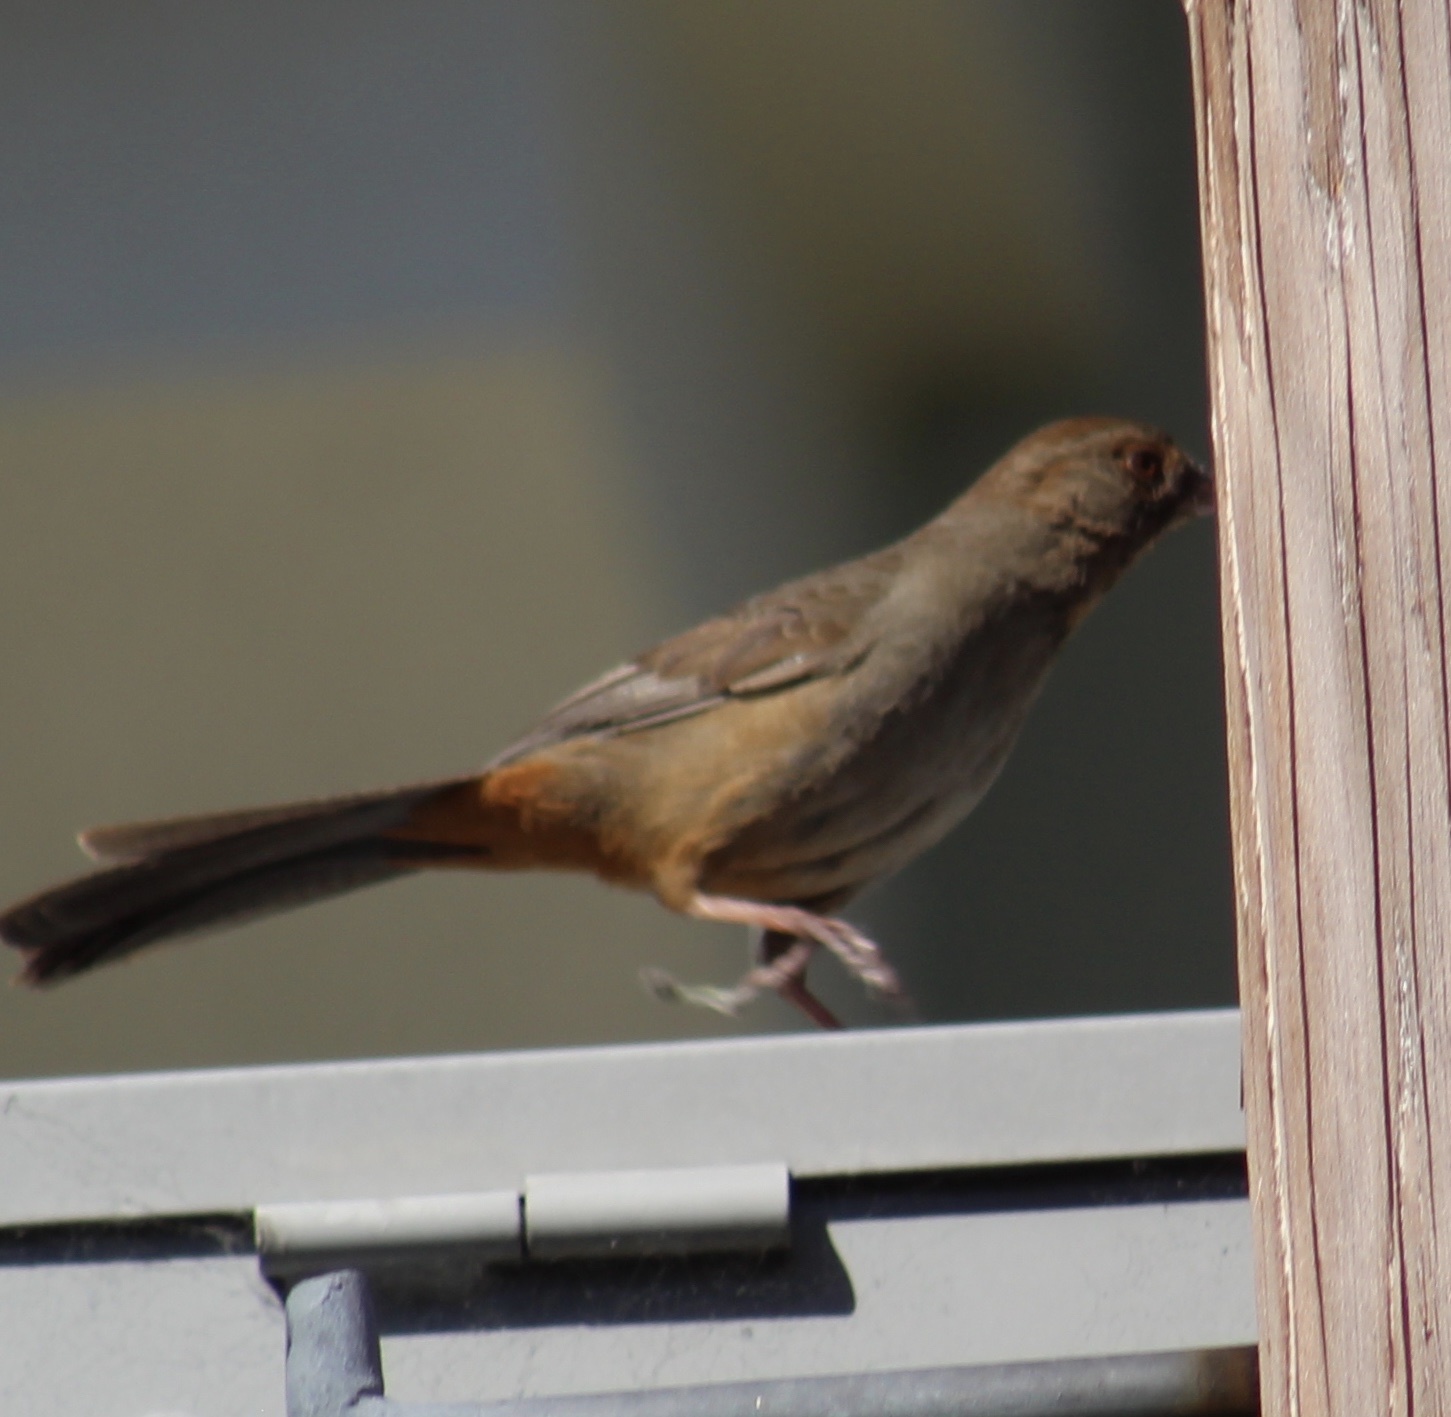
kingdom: Animalia
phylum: Chordata
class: Aves
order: Passeriformes
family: Passerellidae
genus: Melozone
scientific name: Melozone crissalis
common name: California towhee
